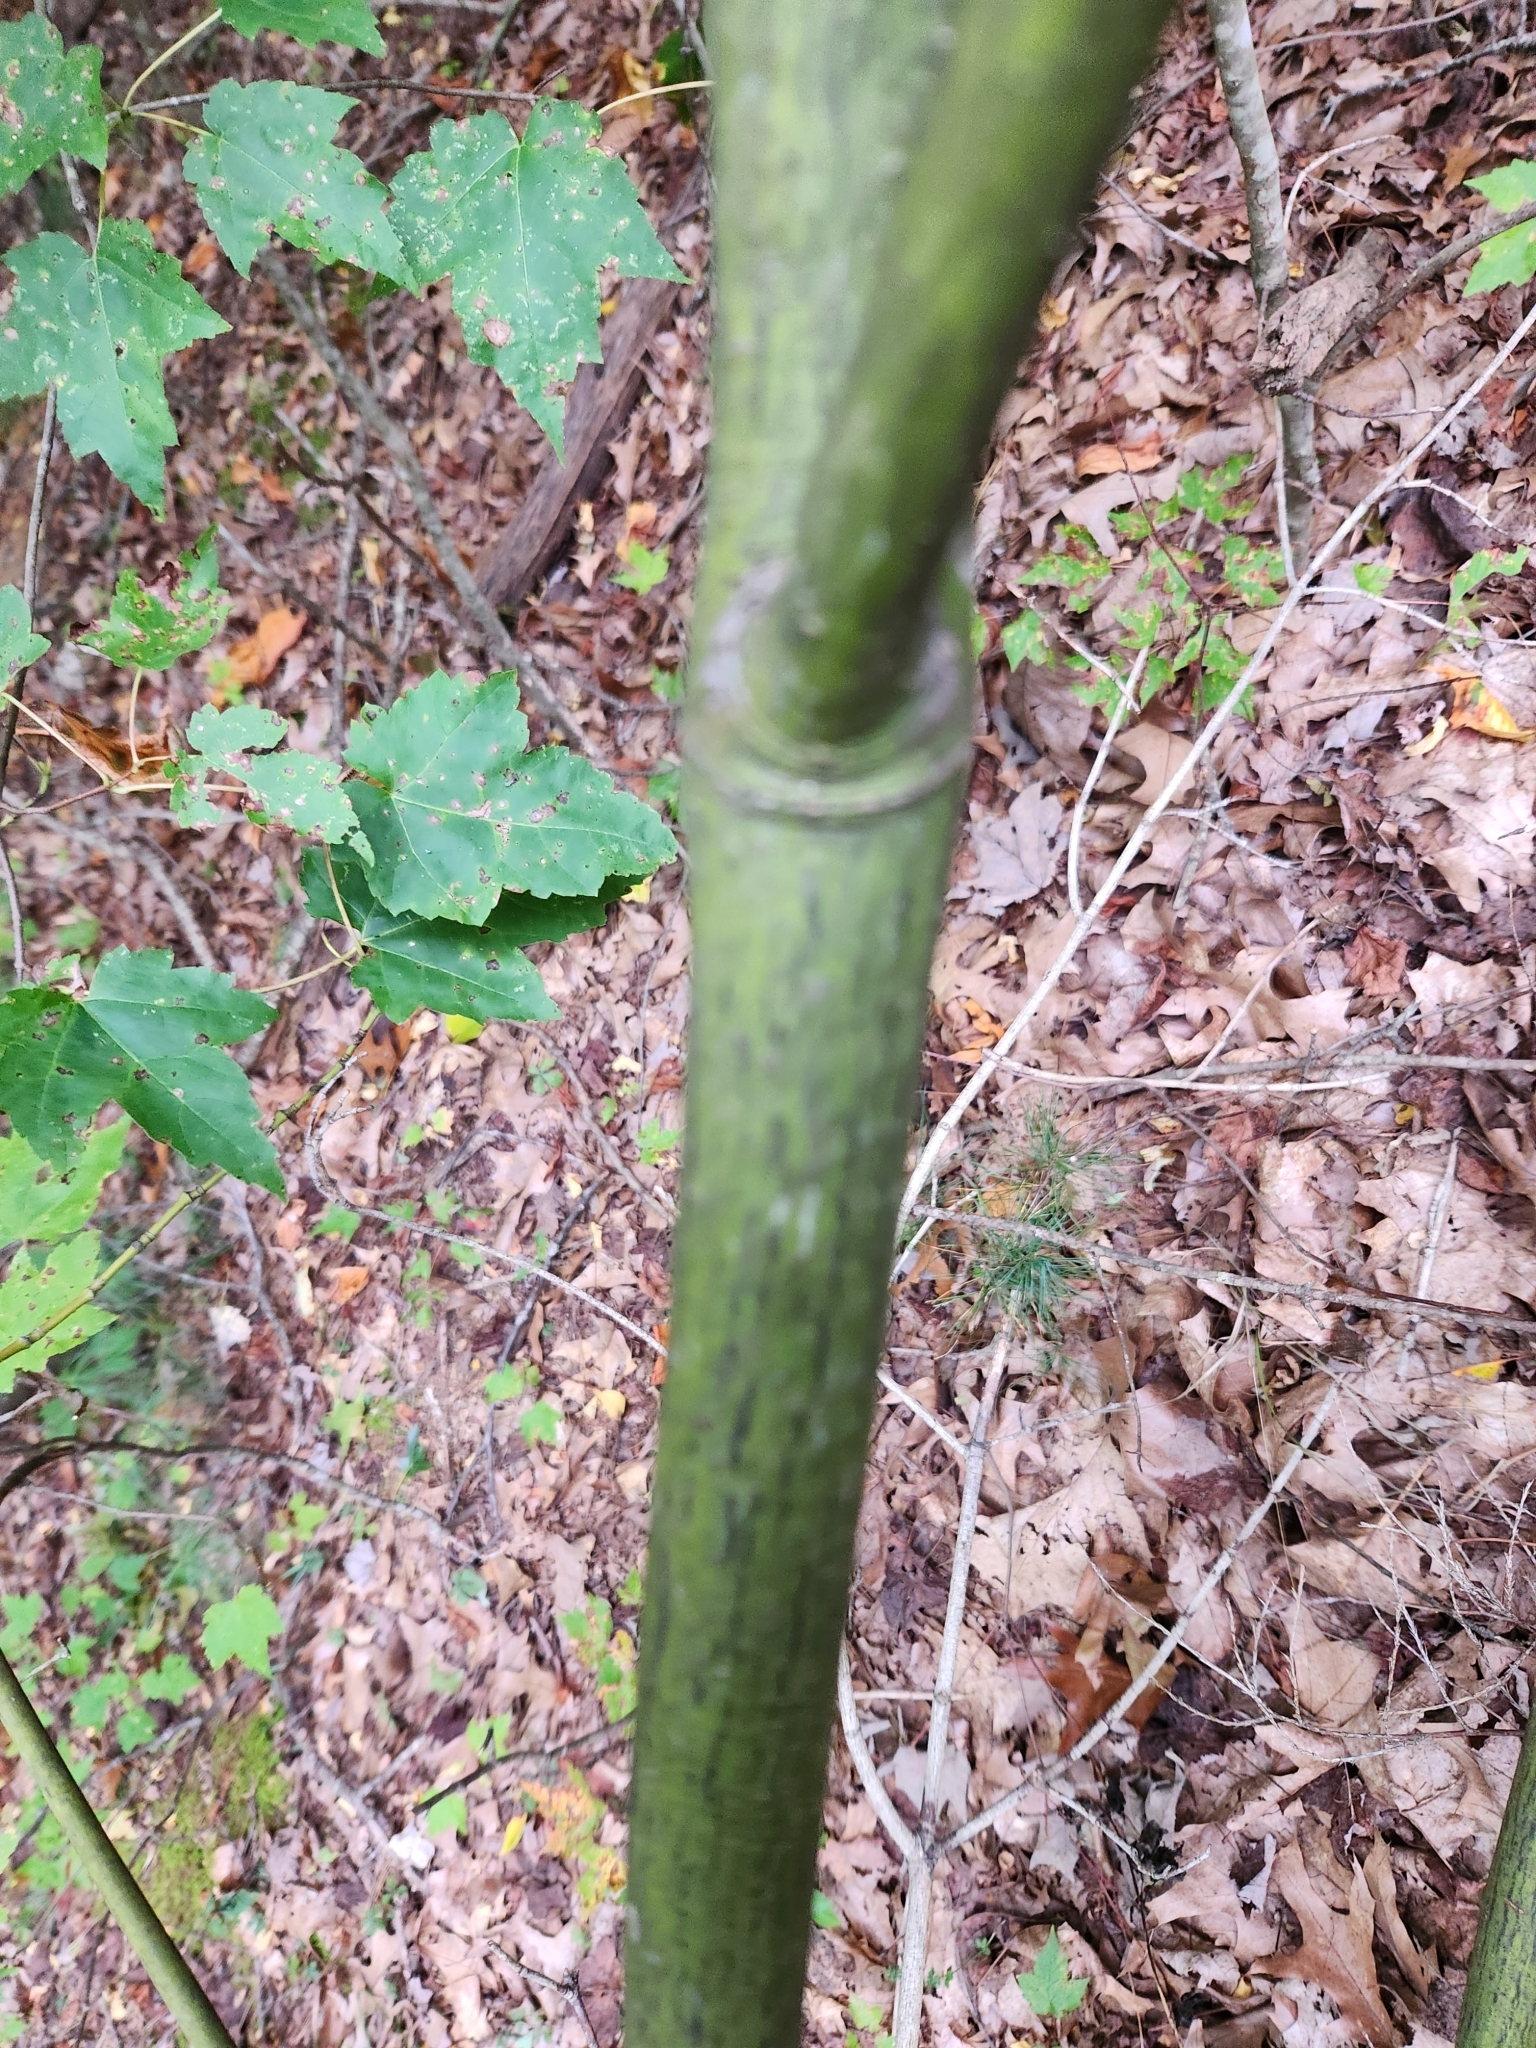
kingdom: Plantae
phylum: Tracheophyta
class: Magnoliopsida
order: Sapindales
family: Sapindaceae
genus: Acer
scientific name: Acer pensylvanicum
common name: Moosewood
